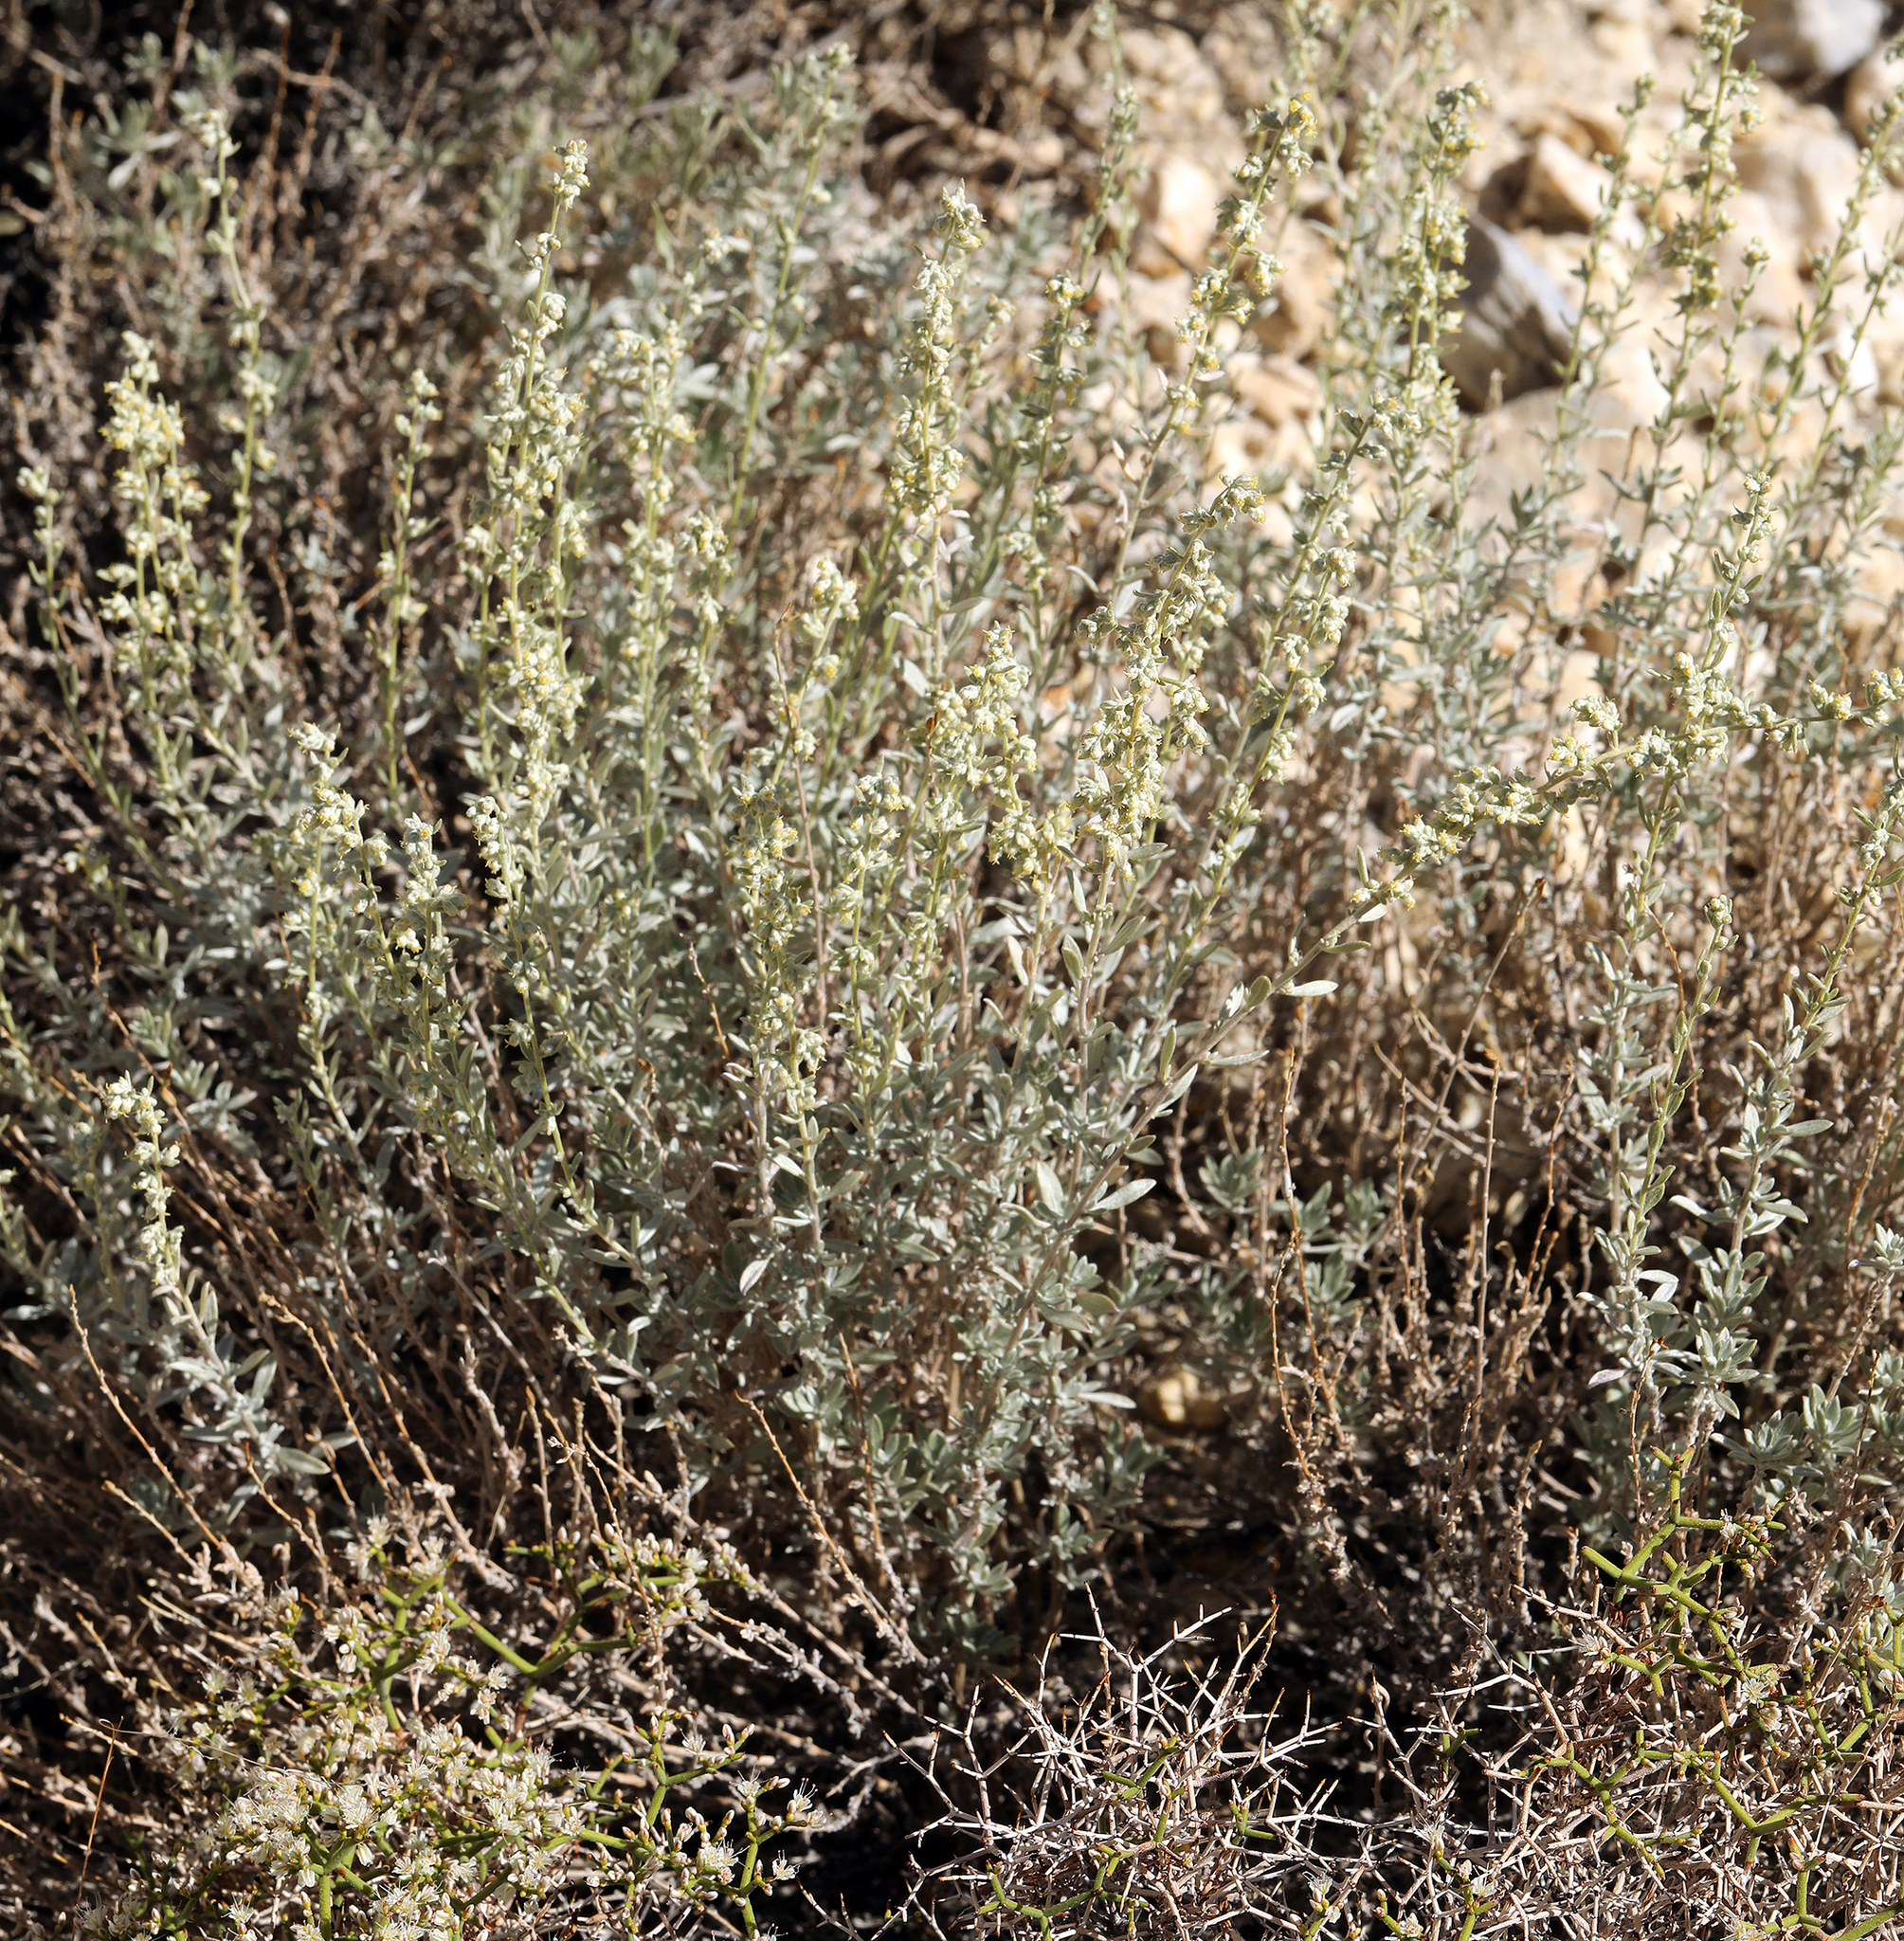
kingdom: Plantae
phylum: Tracheophyta
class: Magnoliopsida
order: Asterales
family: Asteraceae
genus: Artemisia
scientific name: Artemisia bigelovii
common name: Bigelow sagebrush
